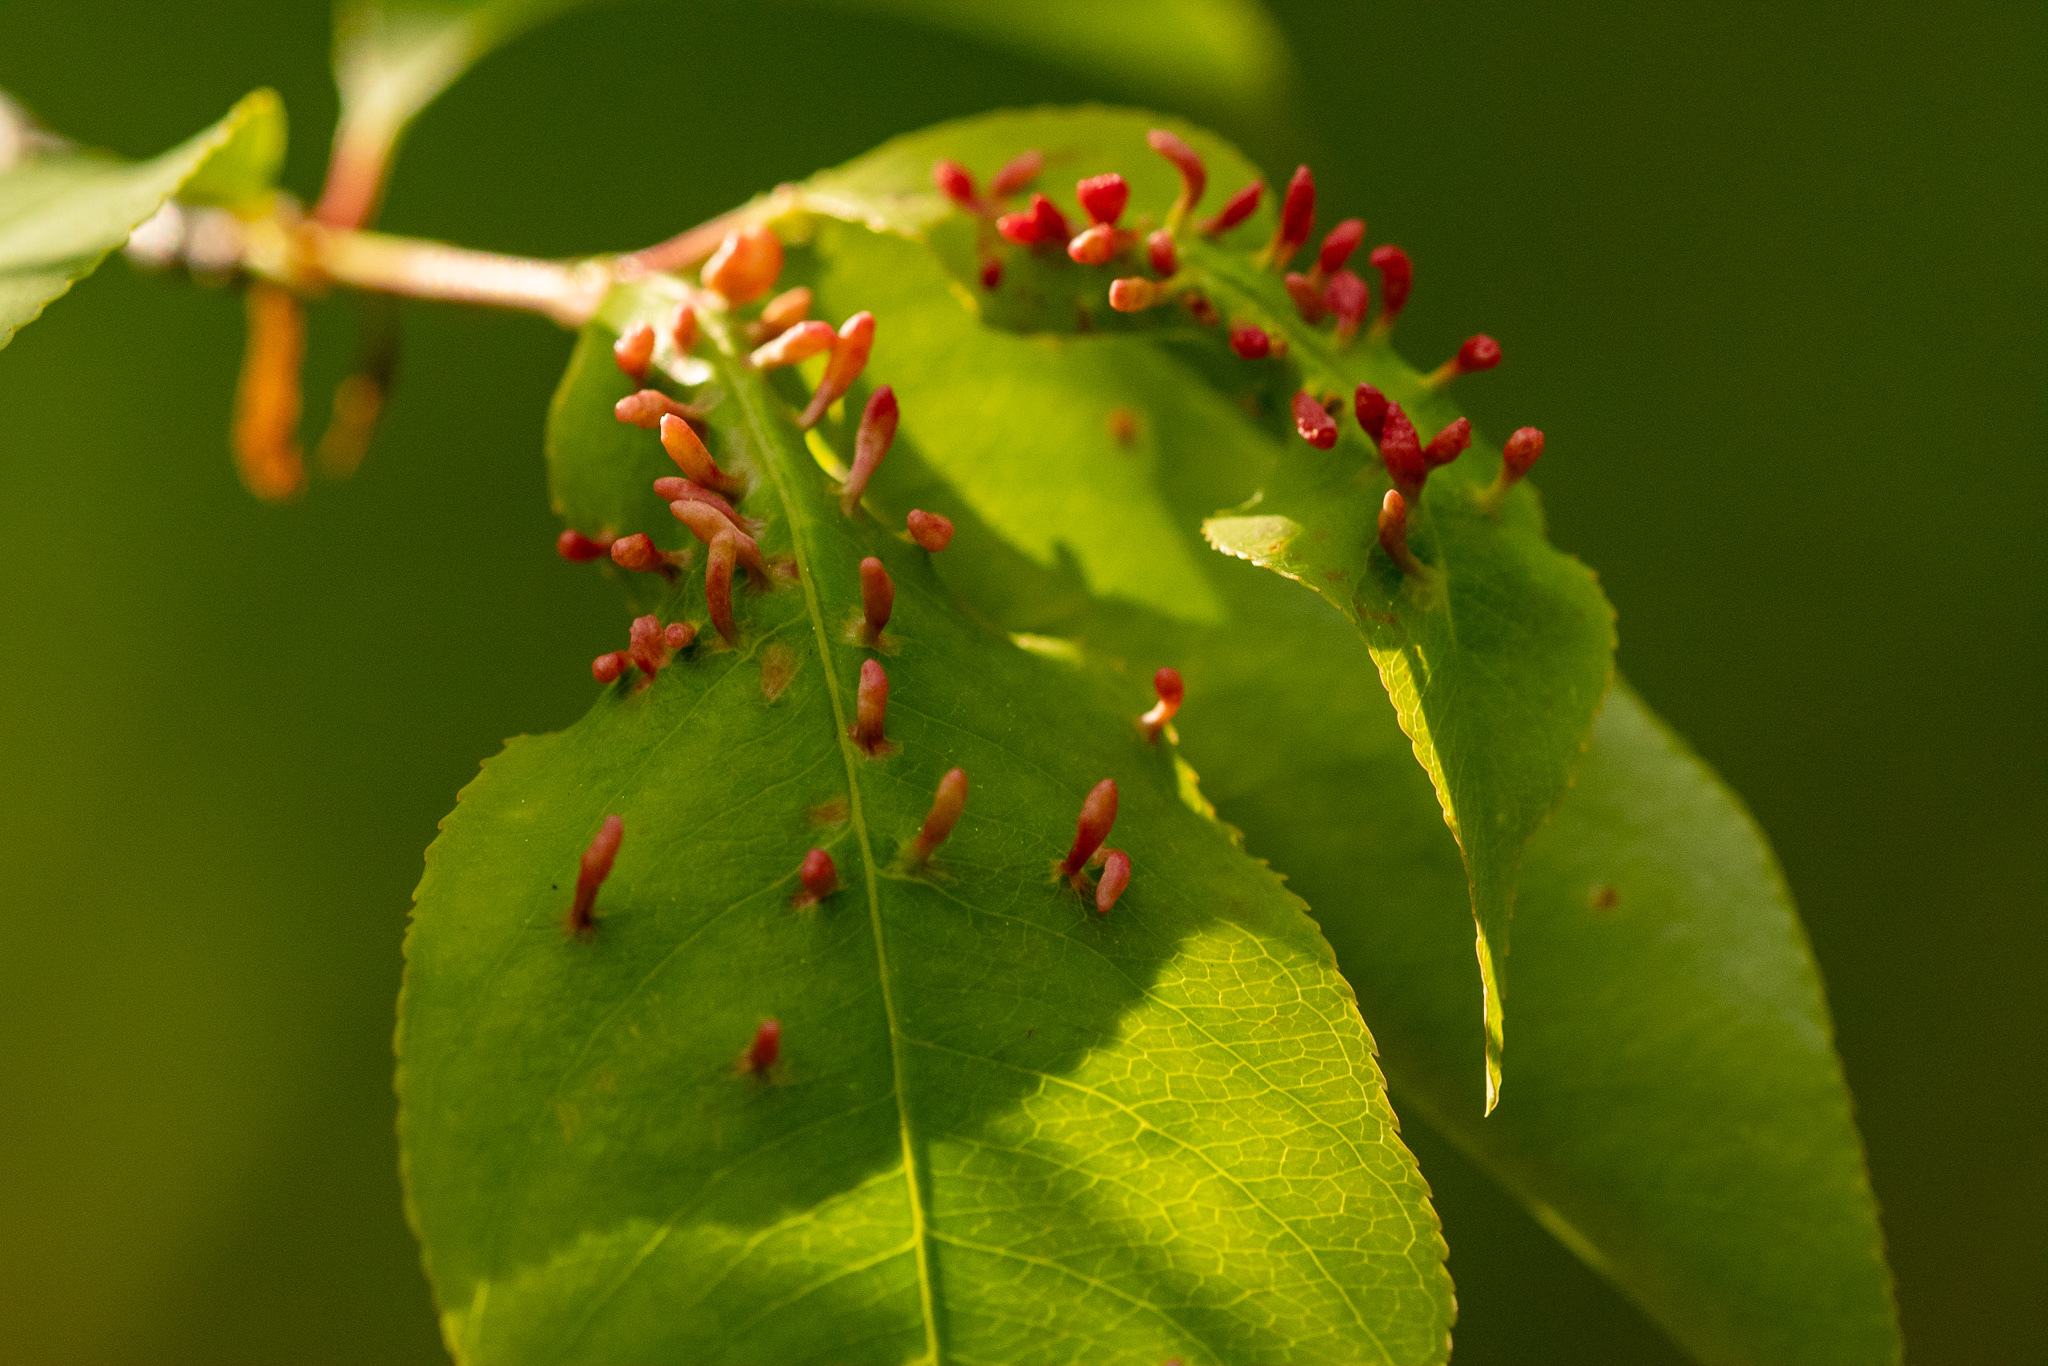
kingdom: Animalia
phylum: Arthropoda
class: Arachnida
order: Trombidiformes
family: Eriophyidae
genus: Eriophyes
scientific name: Eriophyes
